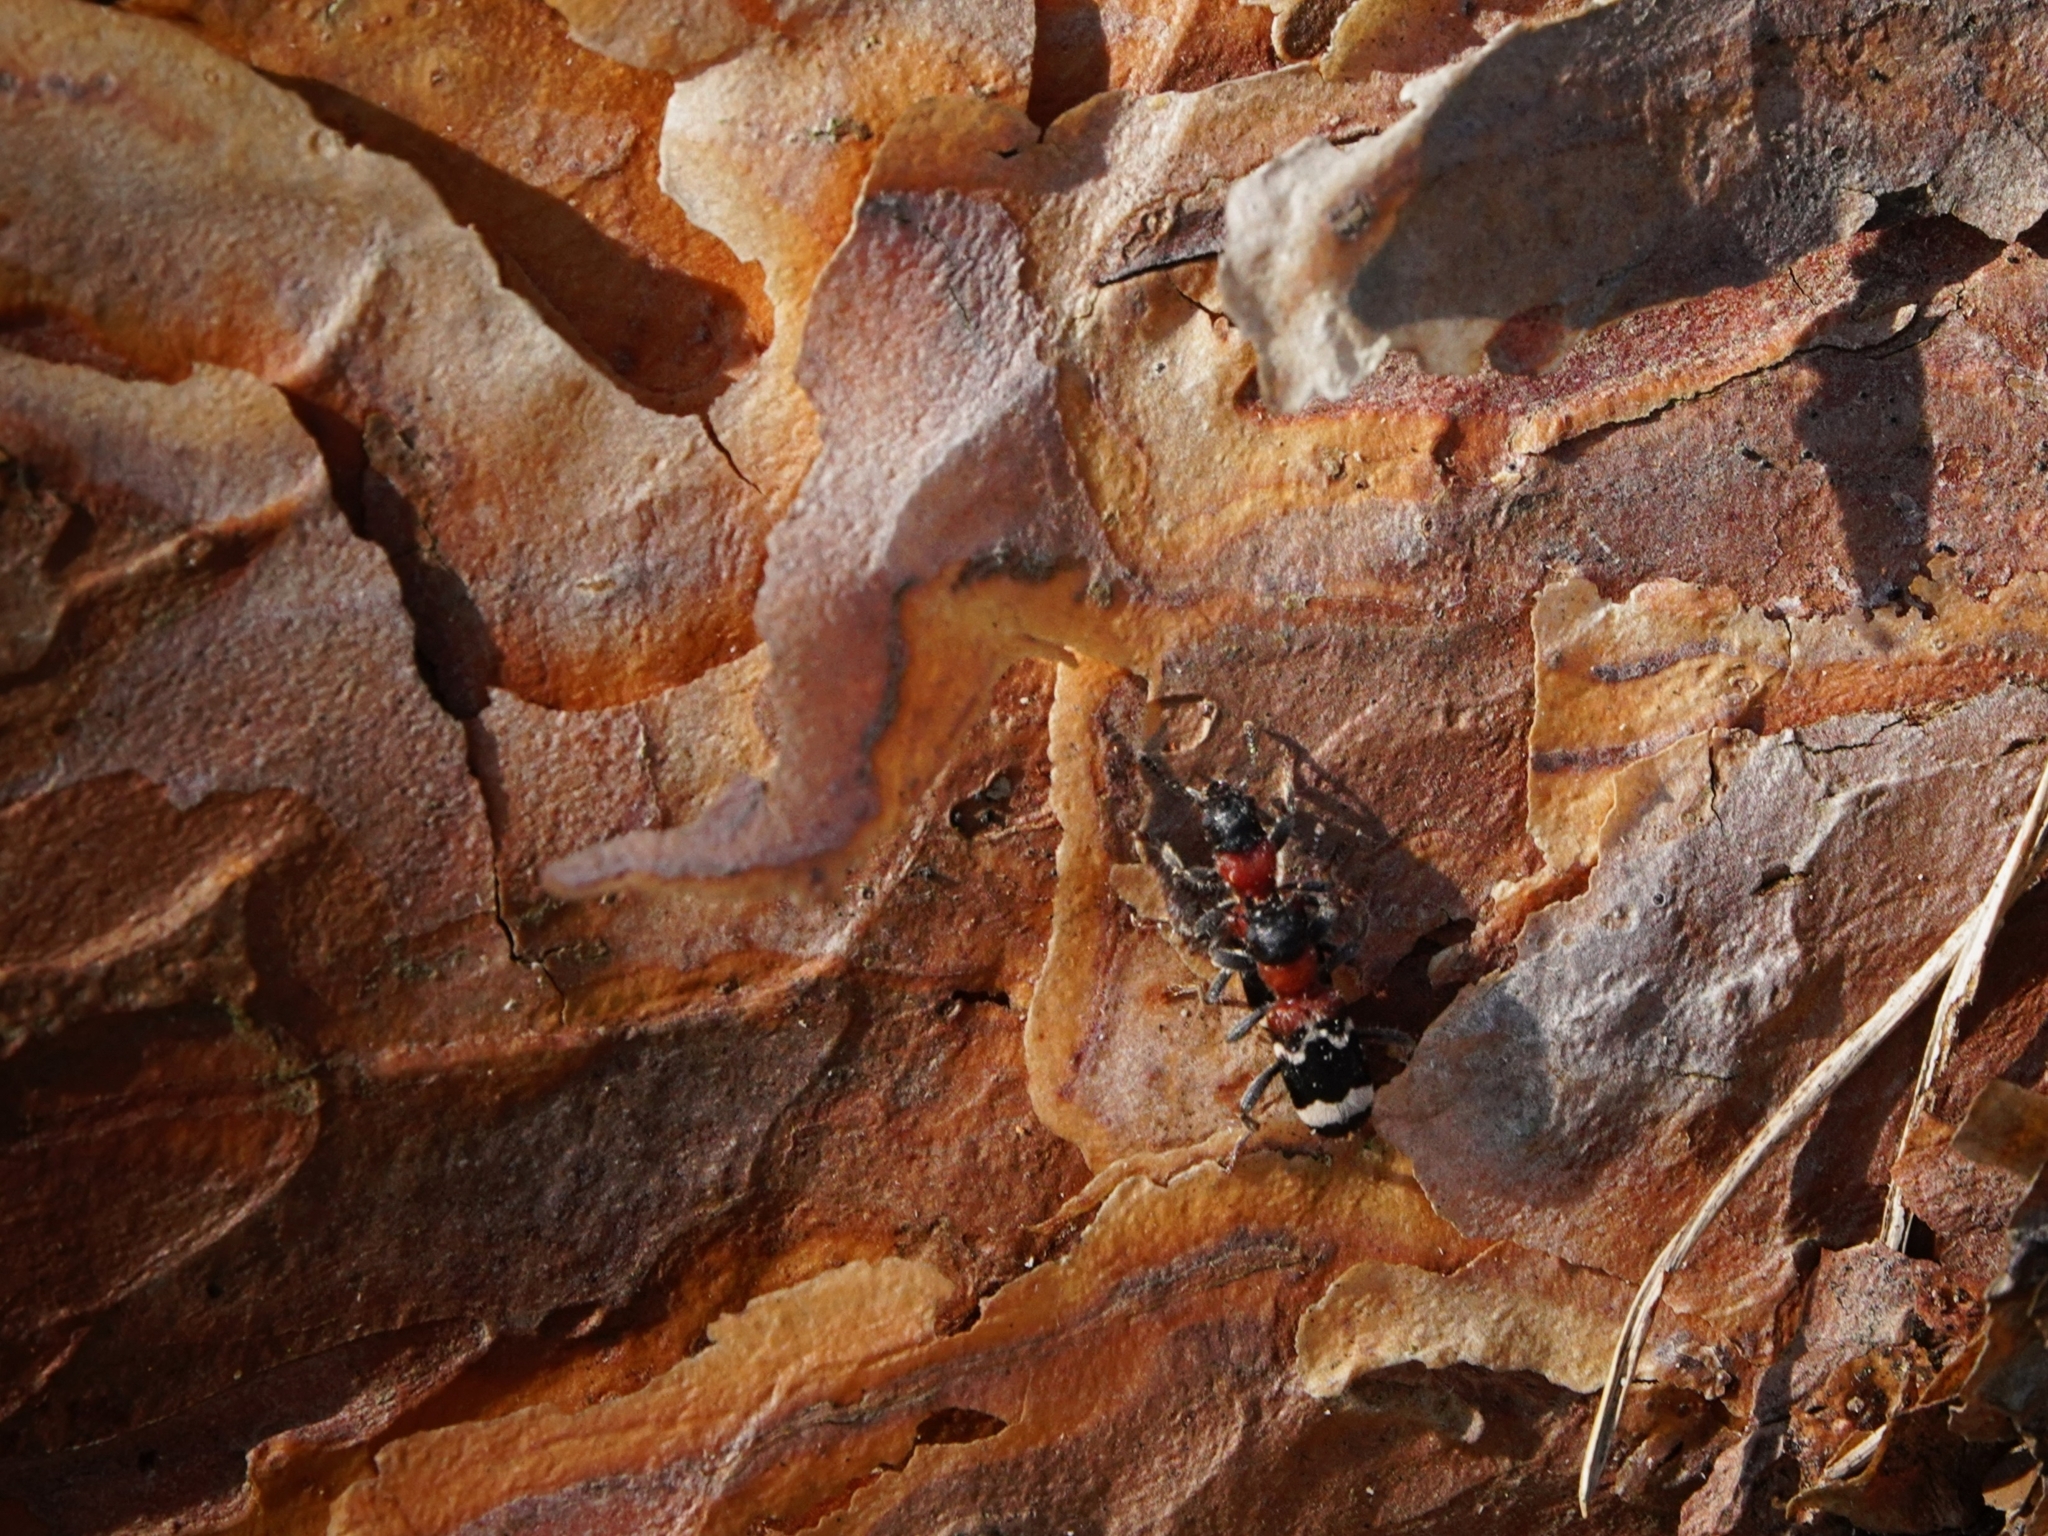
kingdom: Animalia
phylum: Arthropoda
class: Insecta
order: Coleoptera
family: Cleridae
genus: Thanasimus
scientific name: Thanasimus formicarius
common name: Ant beetle
